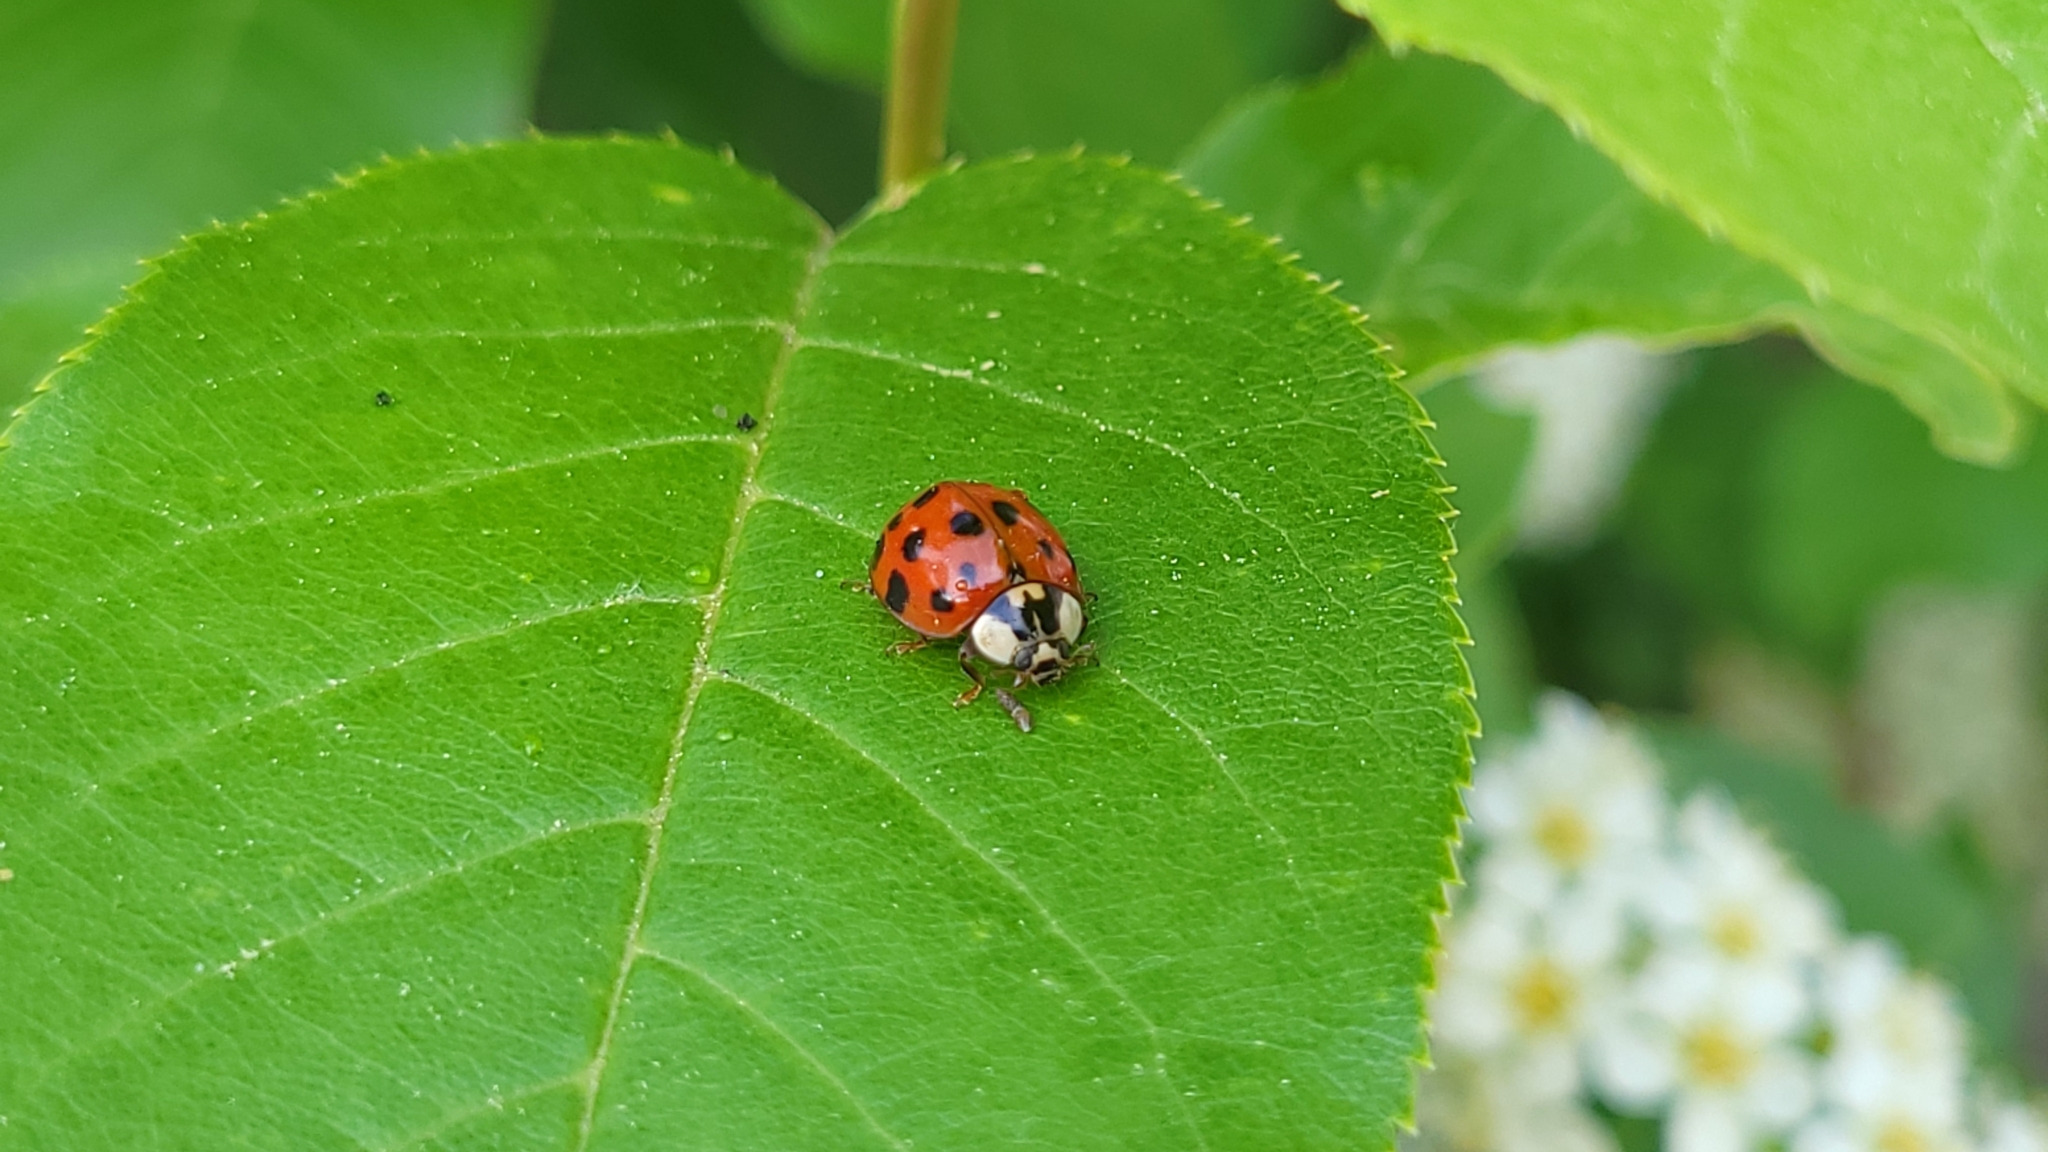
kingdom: Animalia
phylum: Arthropoda
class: Insecta
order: Coleoptera
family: Coccinellidae
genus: Harmonia
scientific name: Harmonia axyridis
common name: Harlequin ladybird
